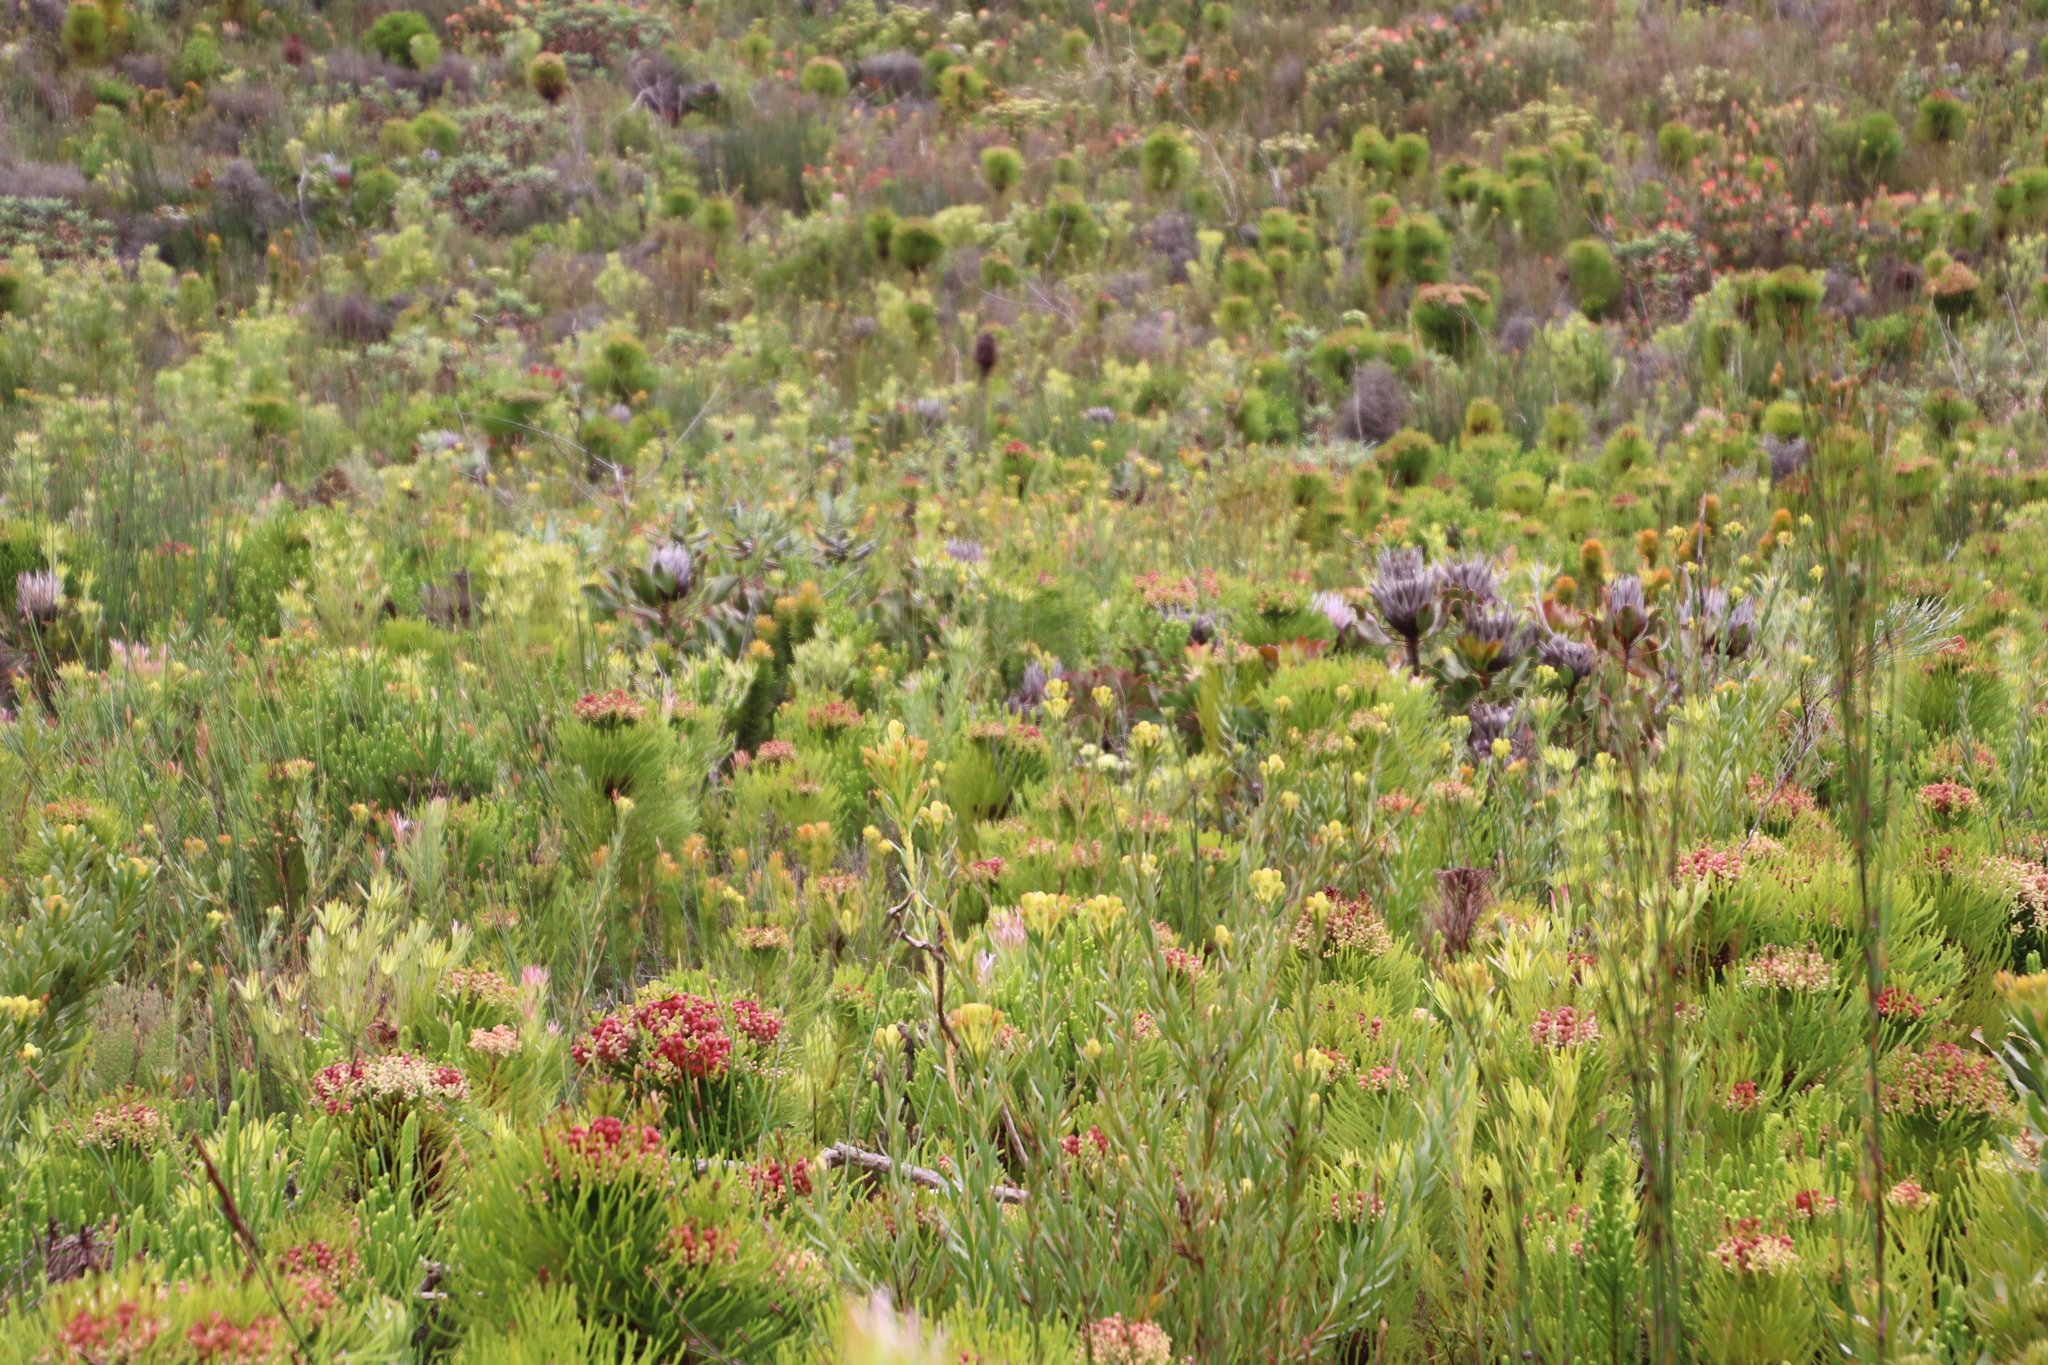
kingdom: Plantae
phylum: Tracheophyta
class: Magnoliopsida
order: Proteales
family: Proteaceae
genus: Protea
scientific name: Protea cynaroides
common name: King protea
